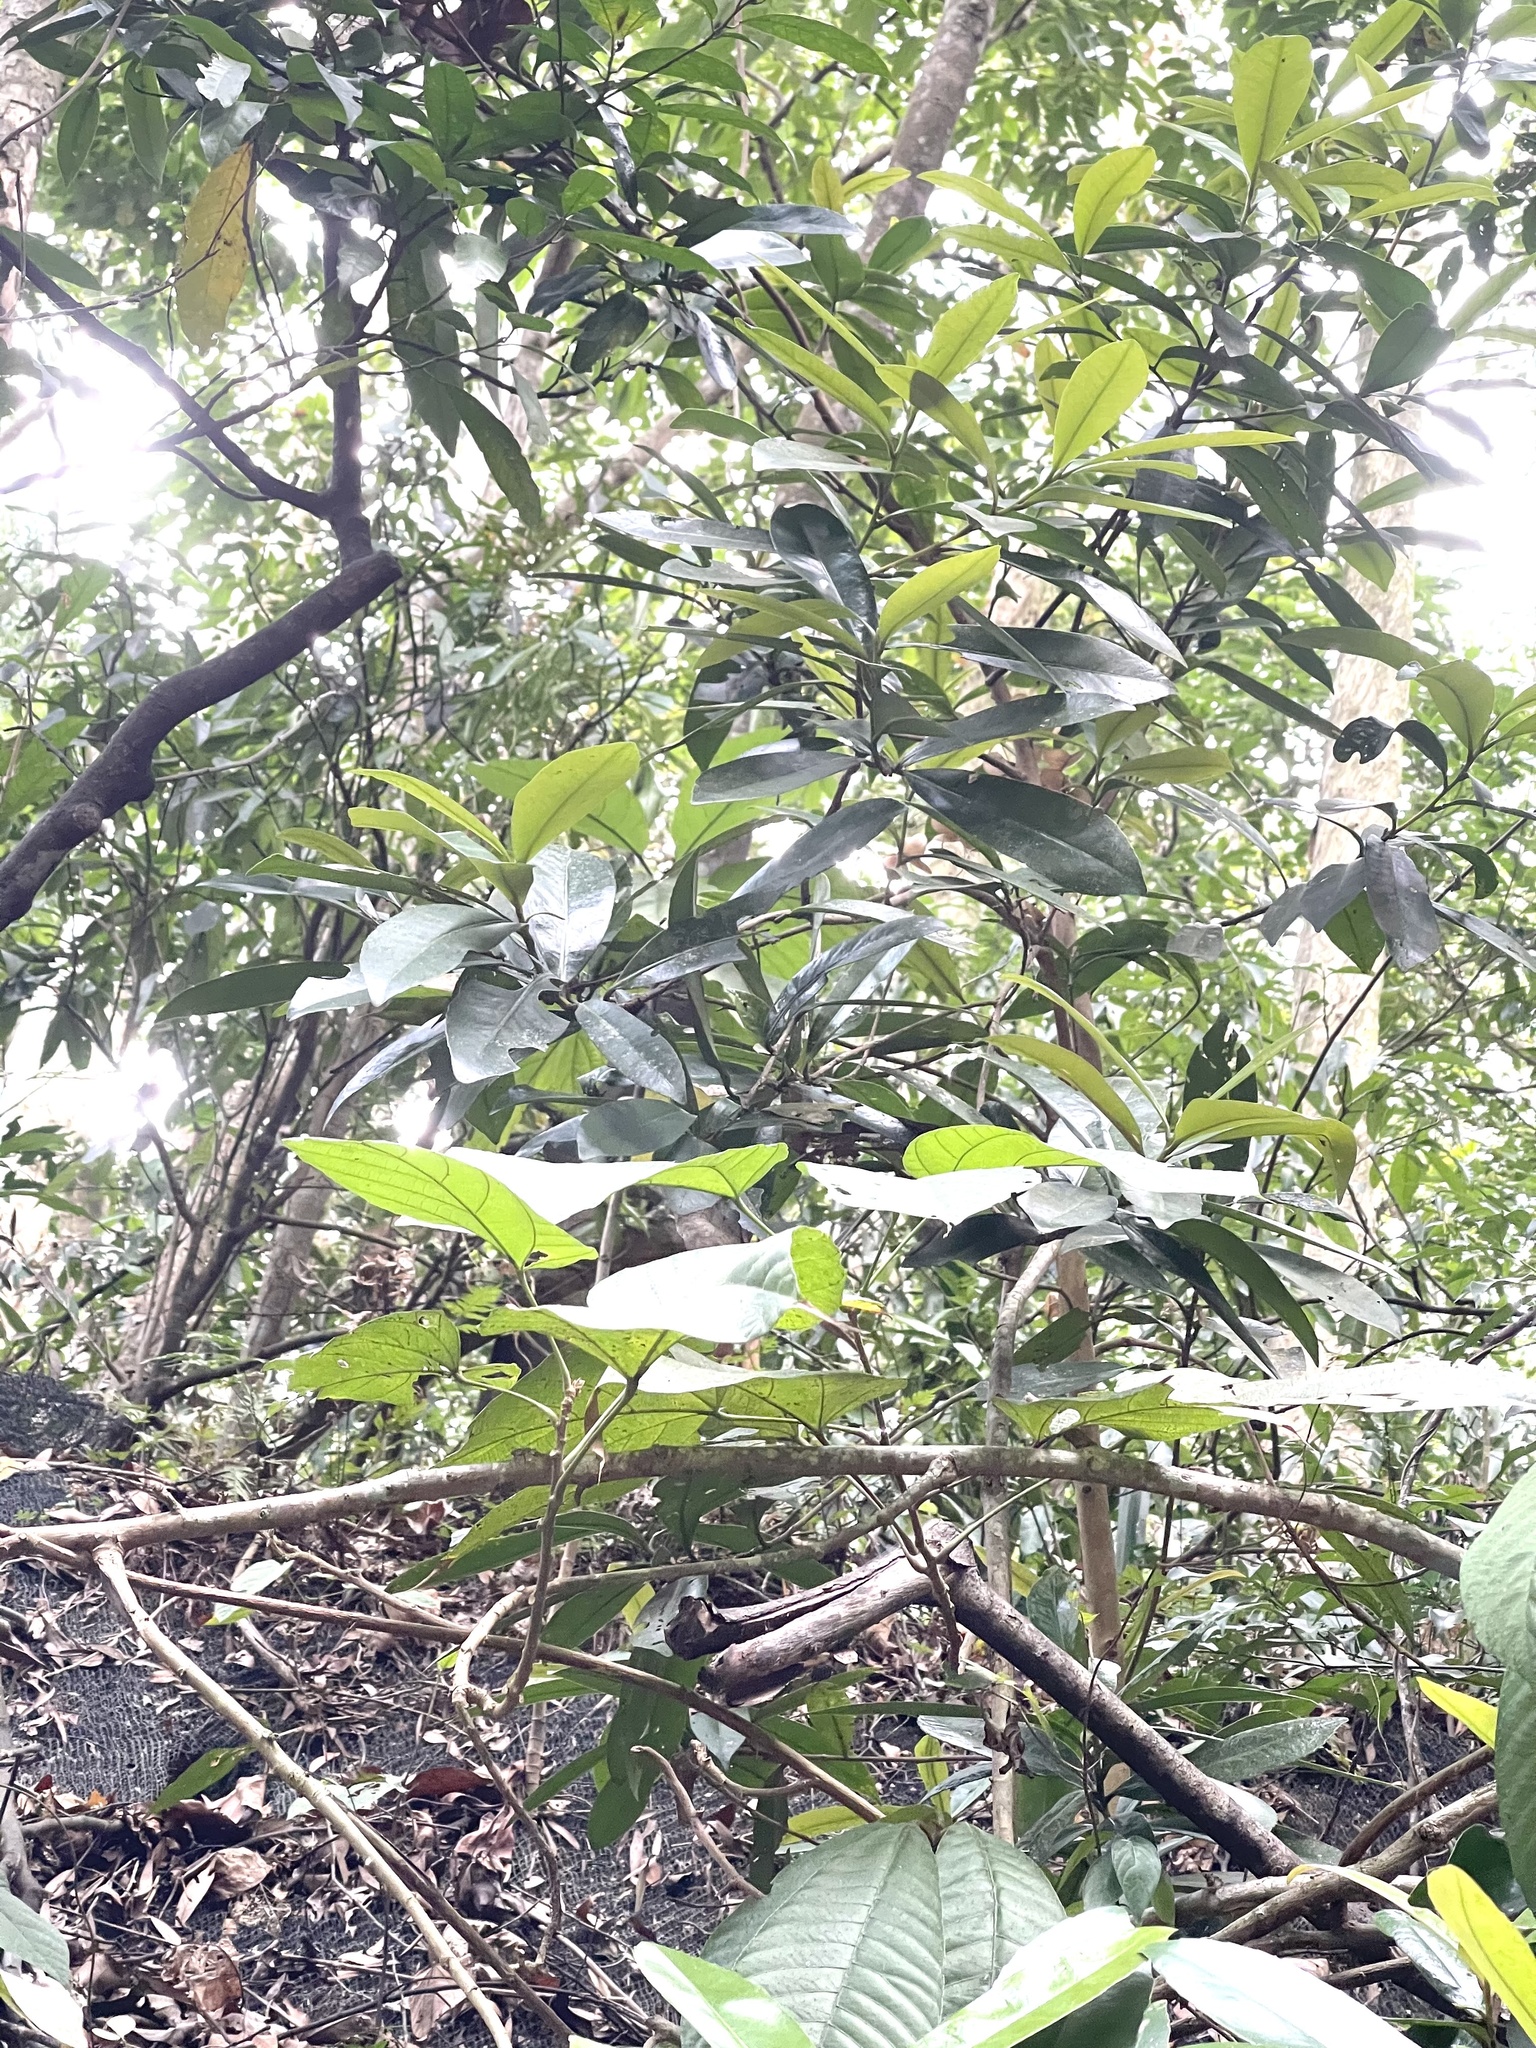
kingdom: Plantae
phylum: Tracheophyta
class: Magnoliopsida
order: Ericales
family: Theaceae
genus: Polyspora
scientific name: Polyspora axillaris
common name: Fried egg tree
